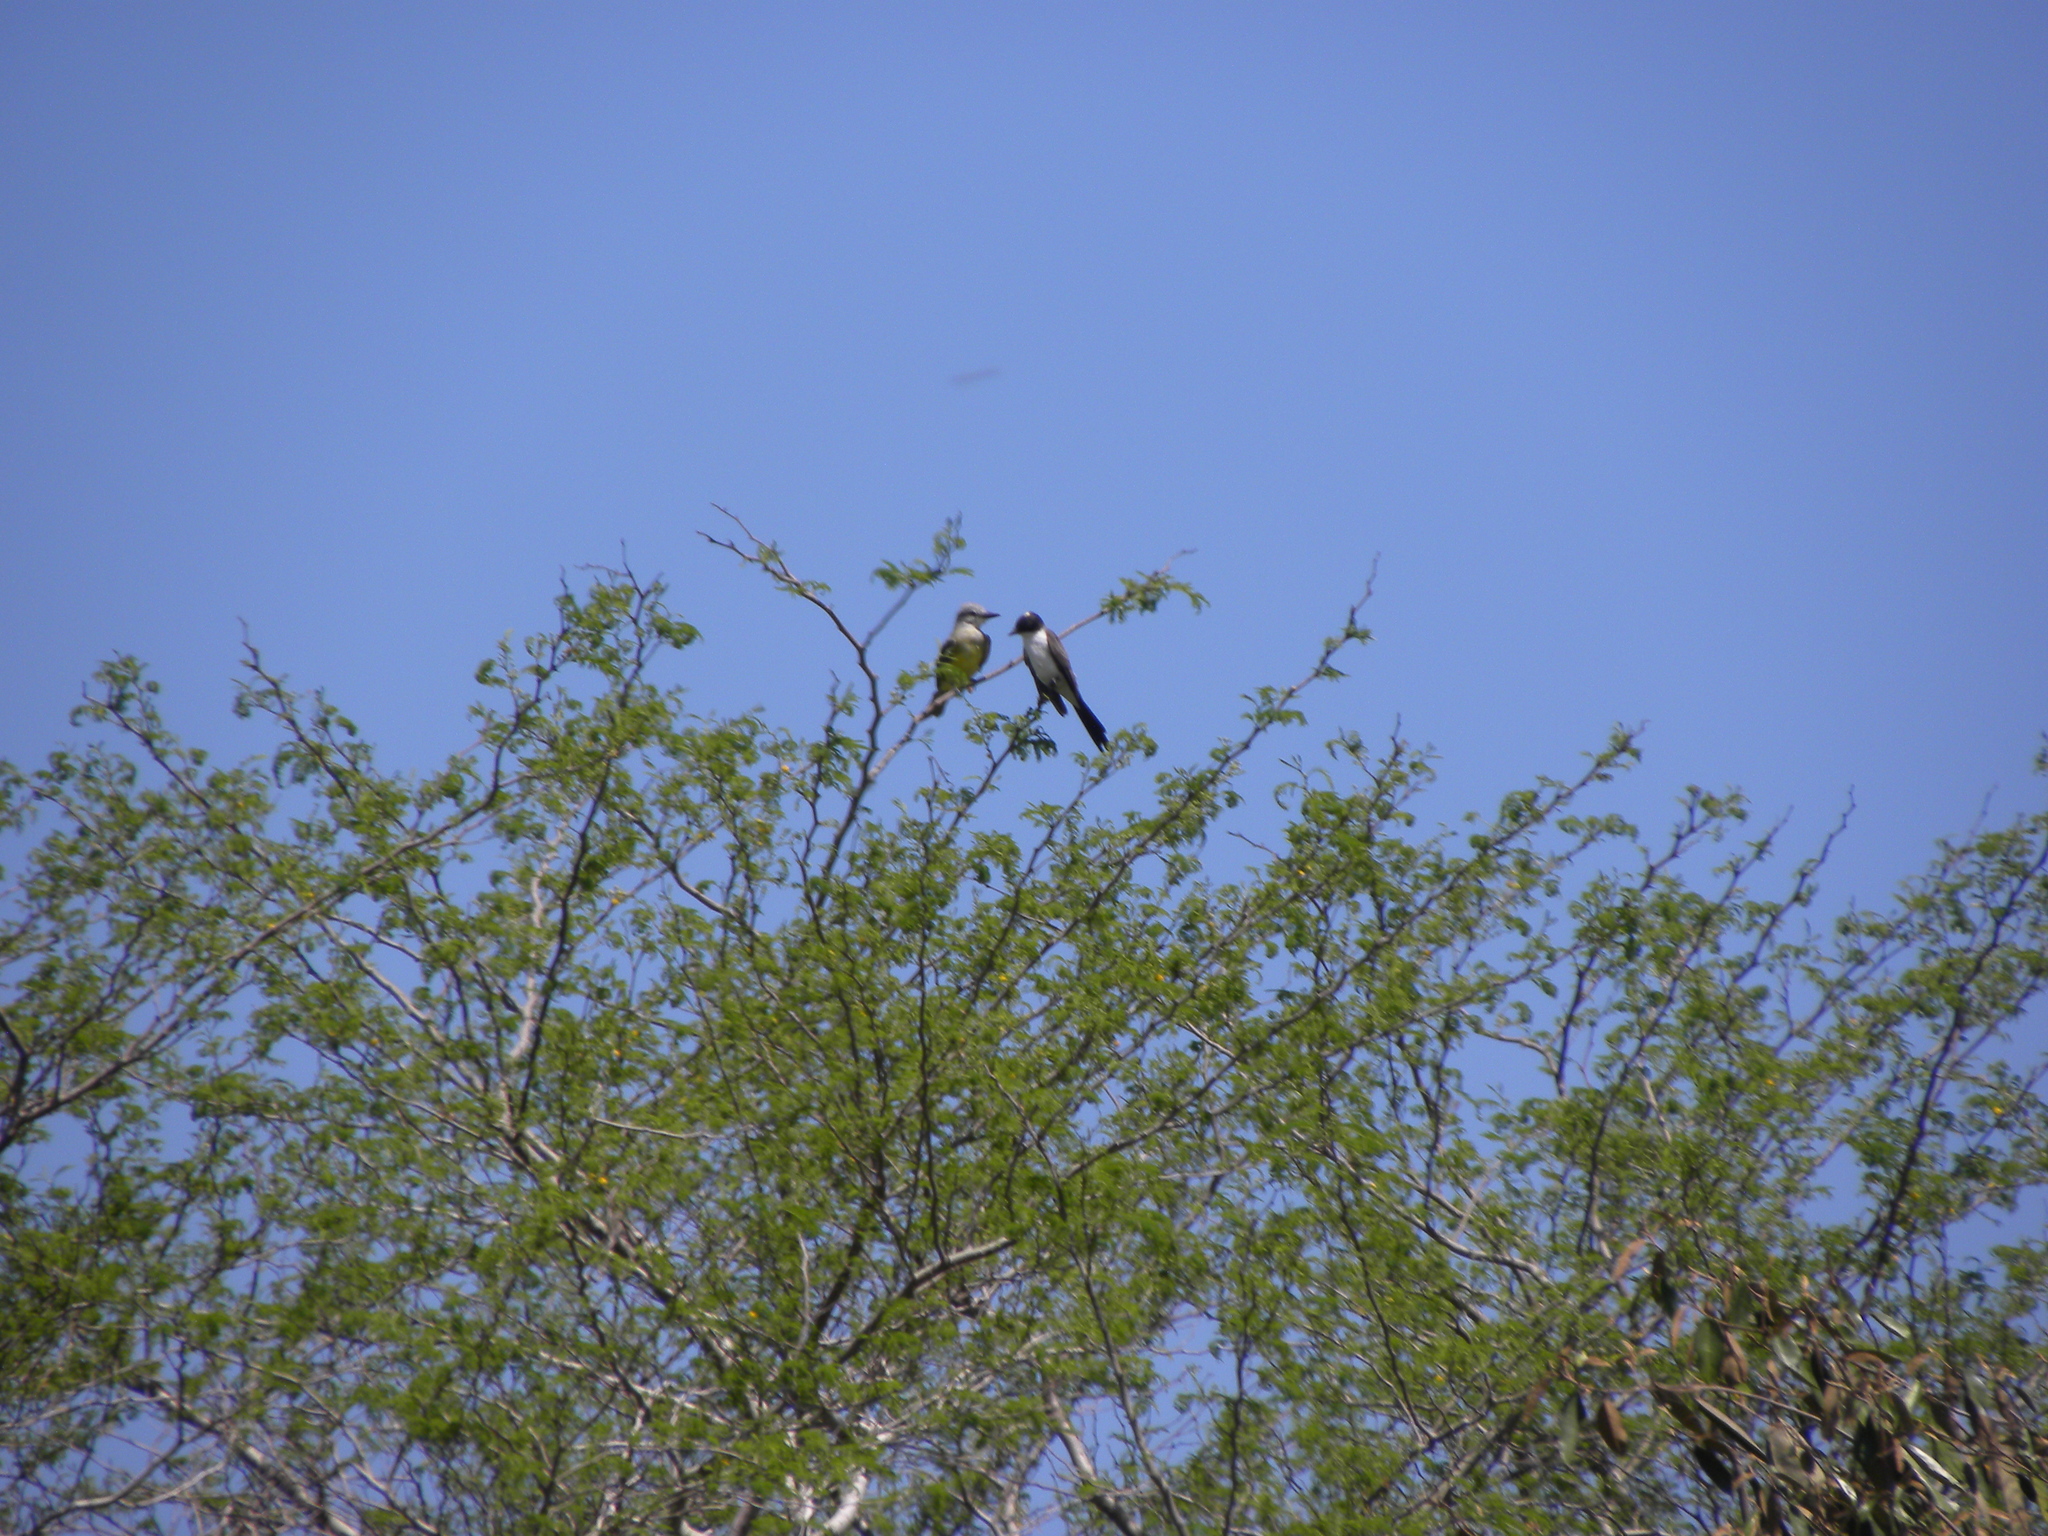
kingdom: Animalia
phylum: Chordata
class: Aves
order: Passeriformes
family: Tyrannidae
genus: Tyrannus
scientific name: Tyrannus savana
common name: Fork-tailed flycatcher
